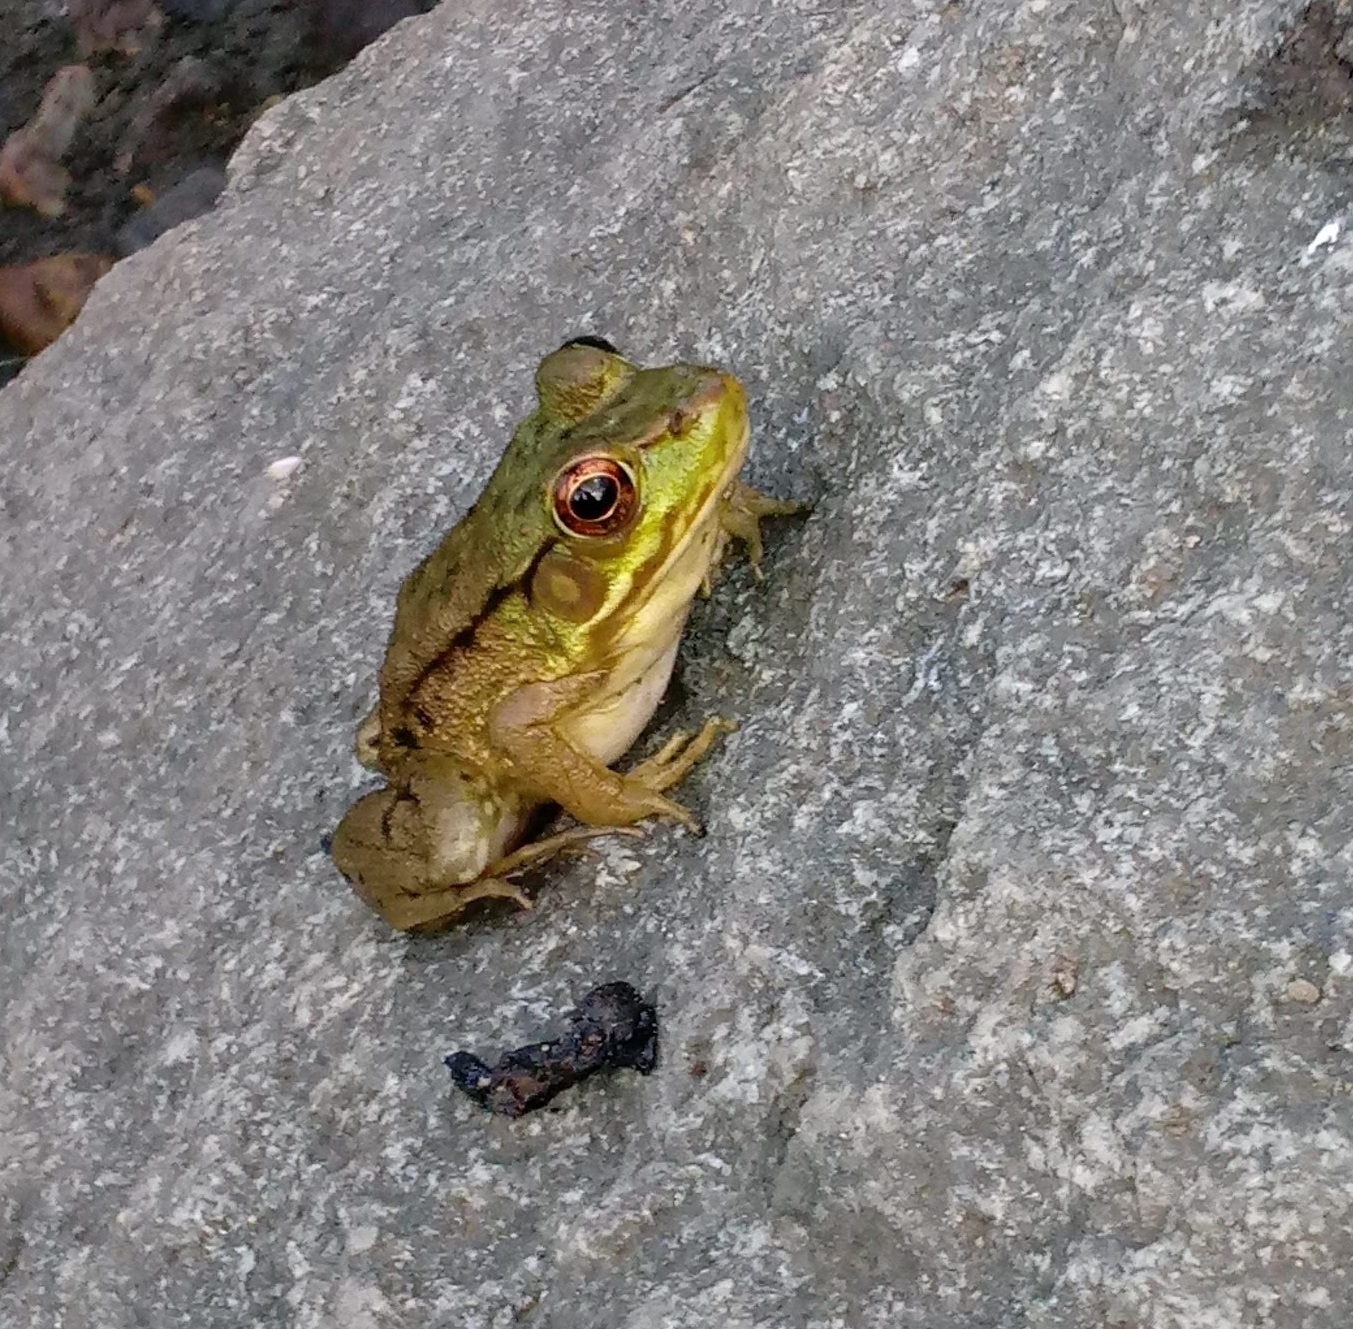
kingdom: Animalia
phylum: Chordata
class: Amphibia
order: Anura
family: Ranidae
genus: Lithobates
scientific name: Lithobates clamitans
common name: Green frog
